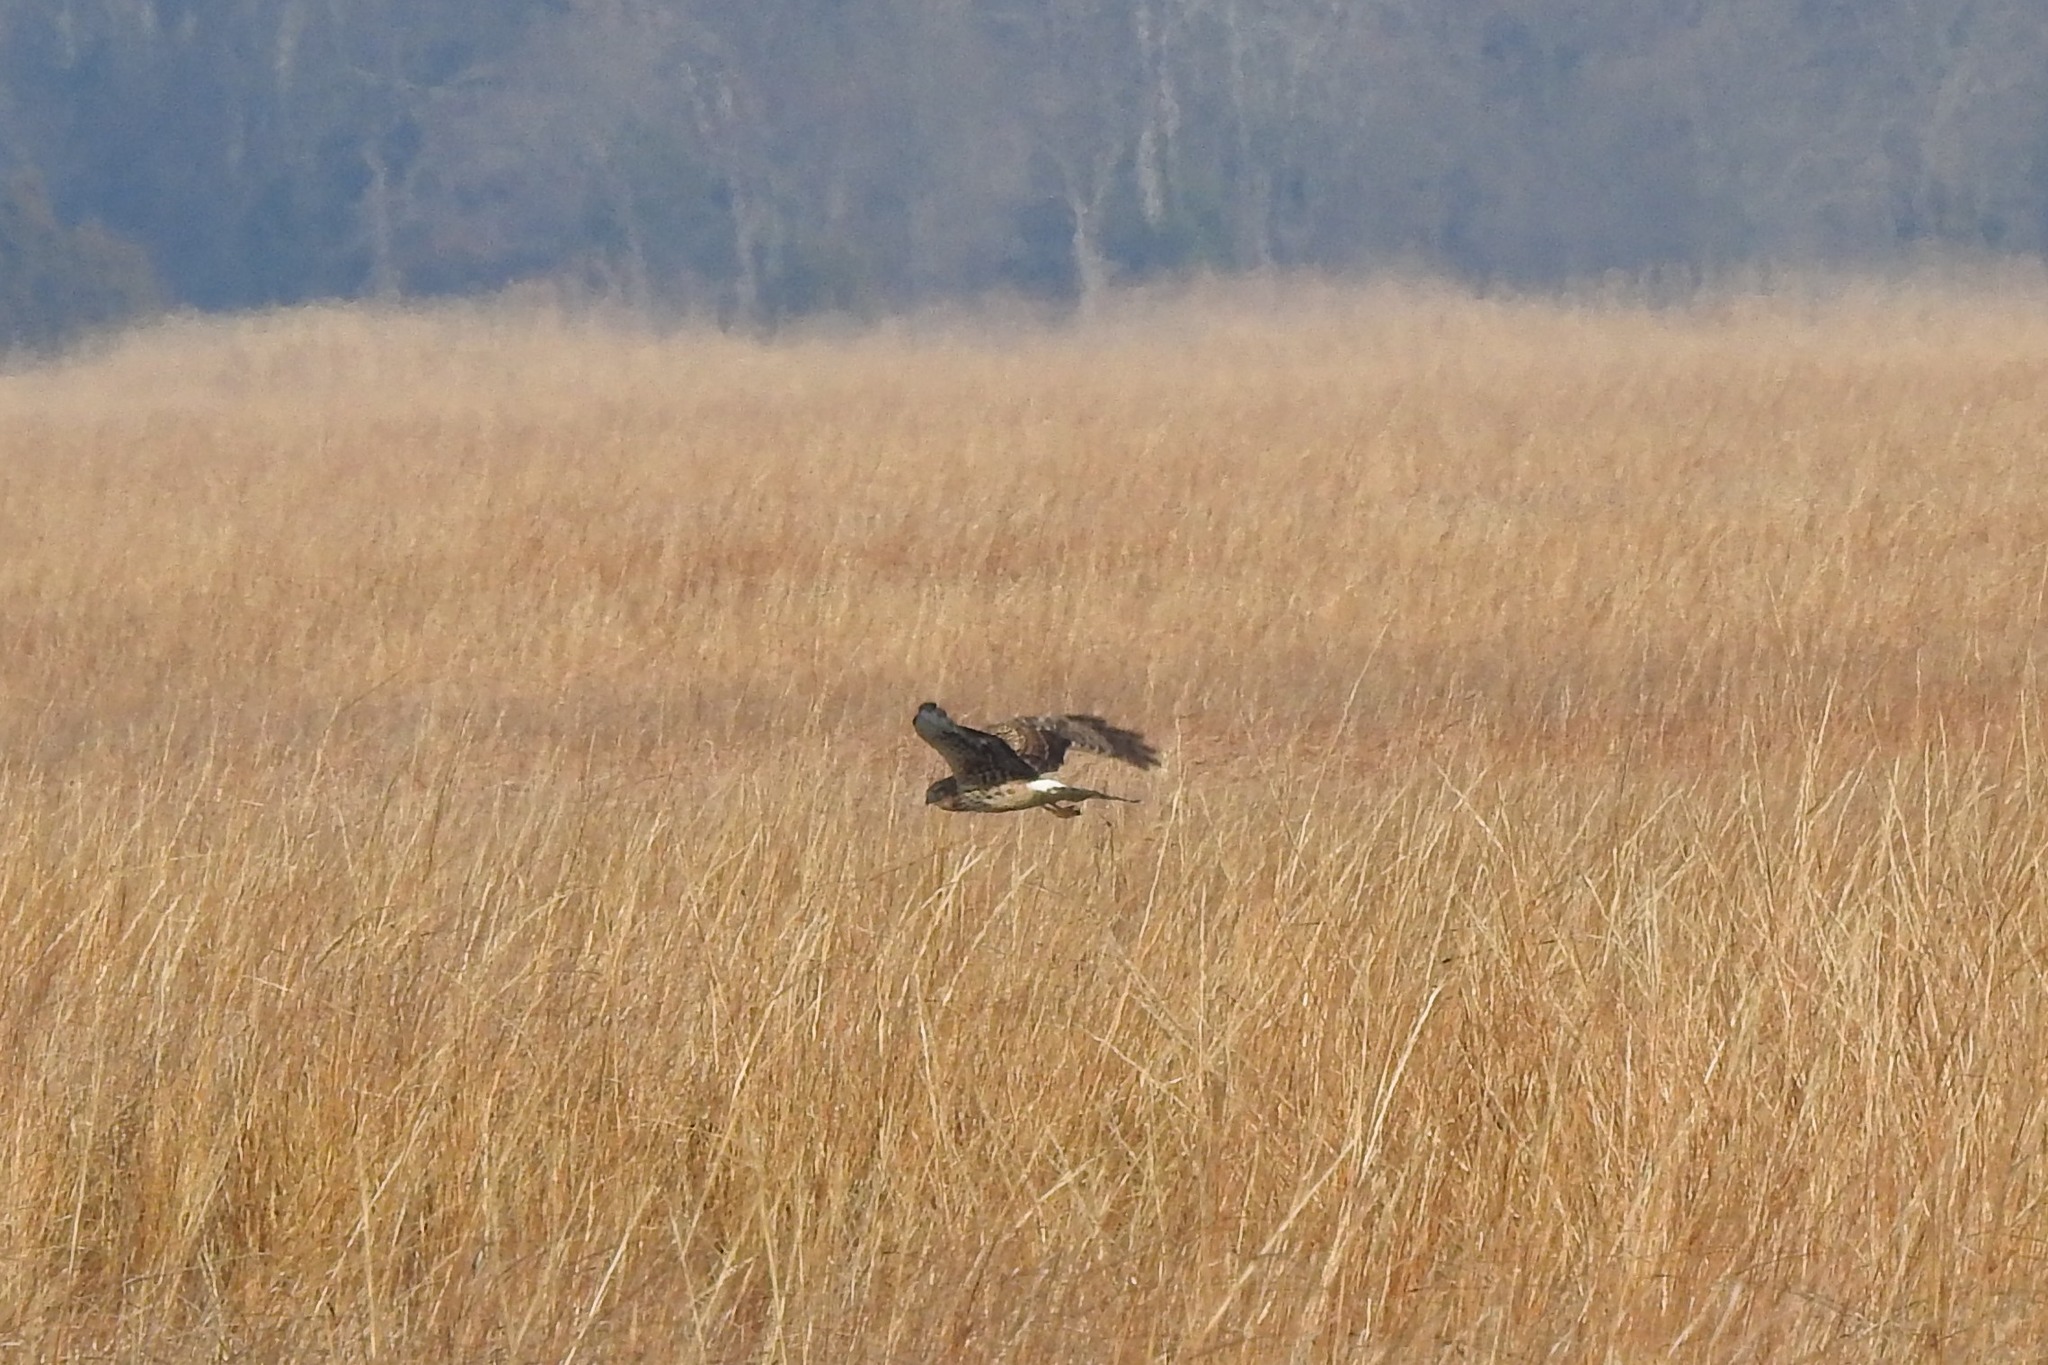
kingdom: Animalia
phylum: Chordata
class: Aves
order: Accipitriformes
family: Accipitridae
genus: Circus
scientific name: Circus cyaneus
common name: Hen harrier
